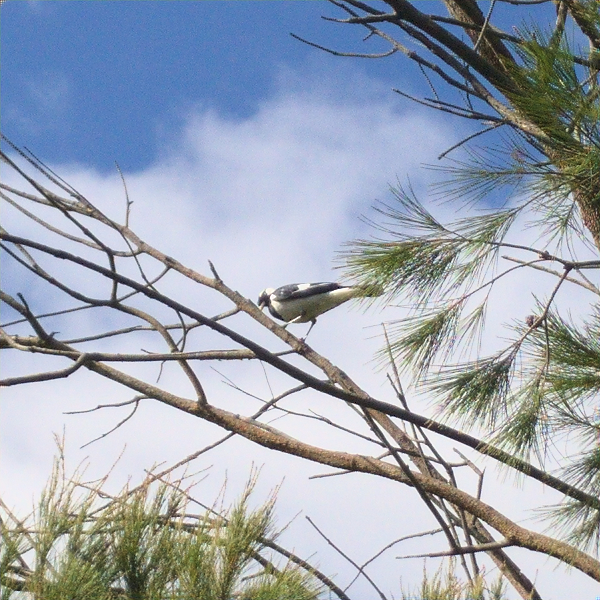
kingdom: Animalia
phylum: Chordata
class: Aves
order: Passeriformes
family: Monarchidae
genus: Grallina
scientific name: Grallina cyanoleuca
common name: Magpie-lark
